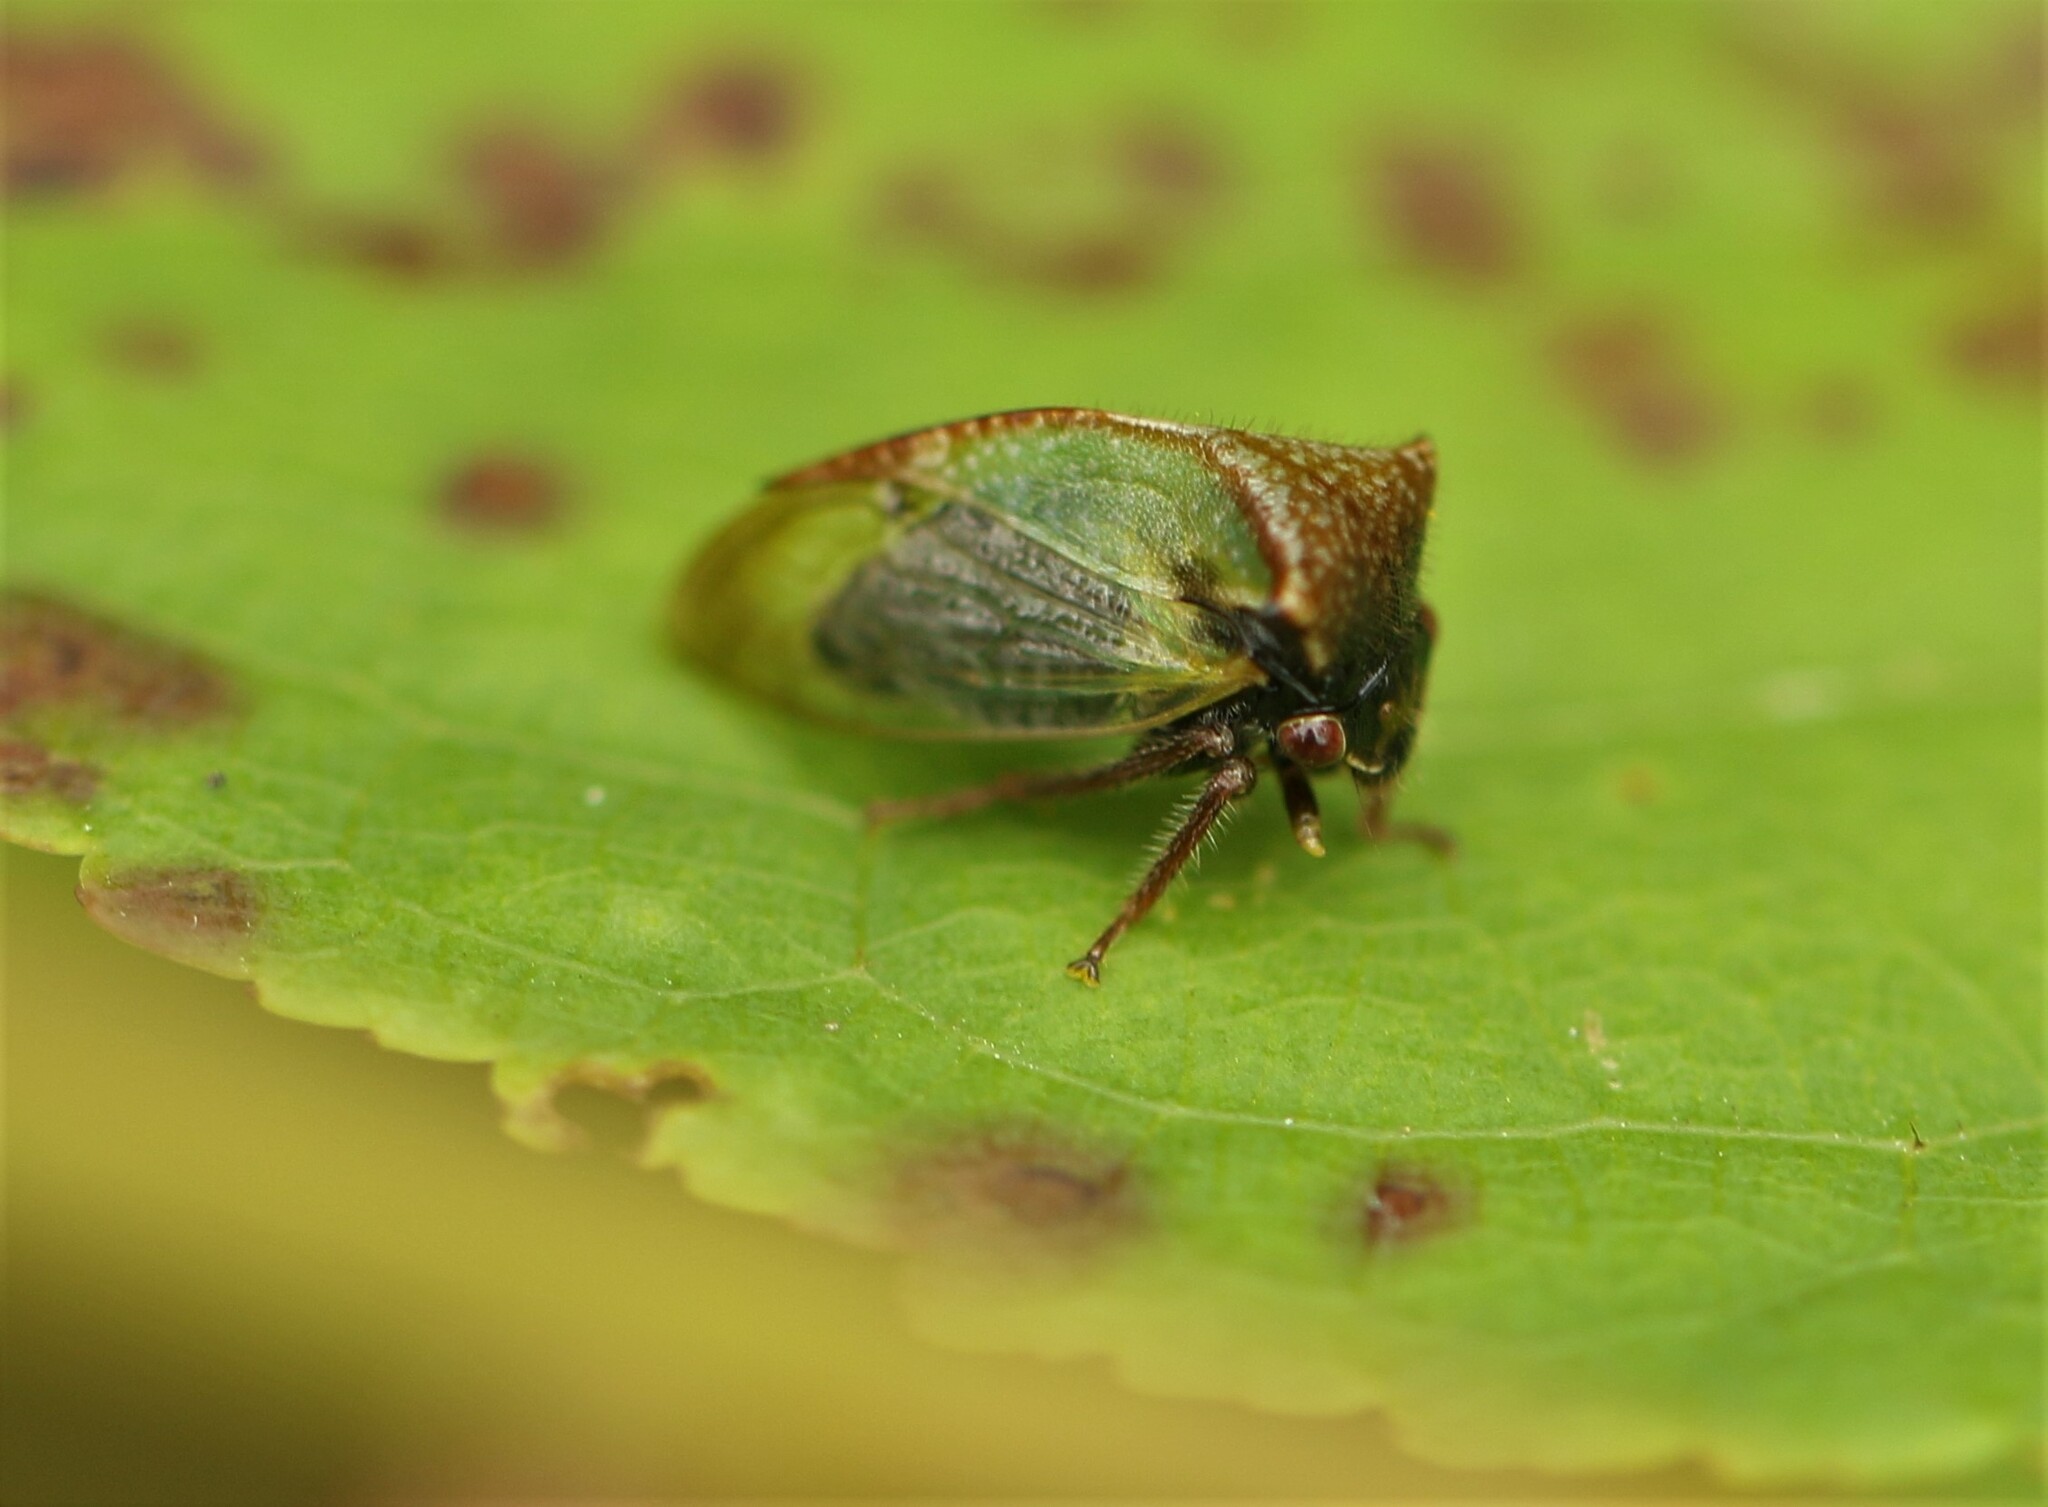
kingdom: Animalia
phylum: Arthropoda
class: Insecta
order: Hemiptera
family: Membracidae
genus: Stictocephala
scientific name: Stictocephala basalis
